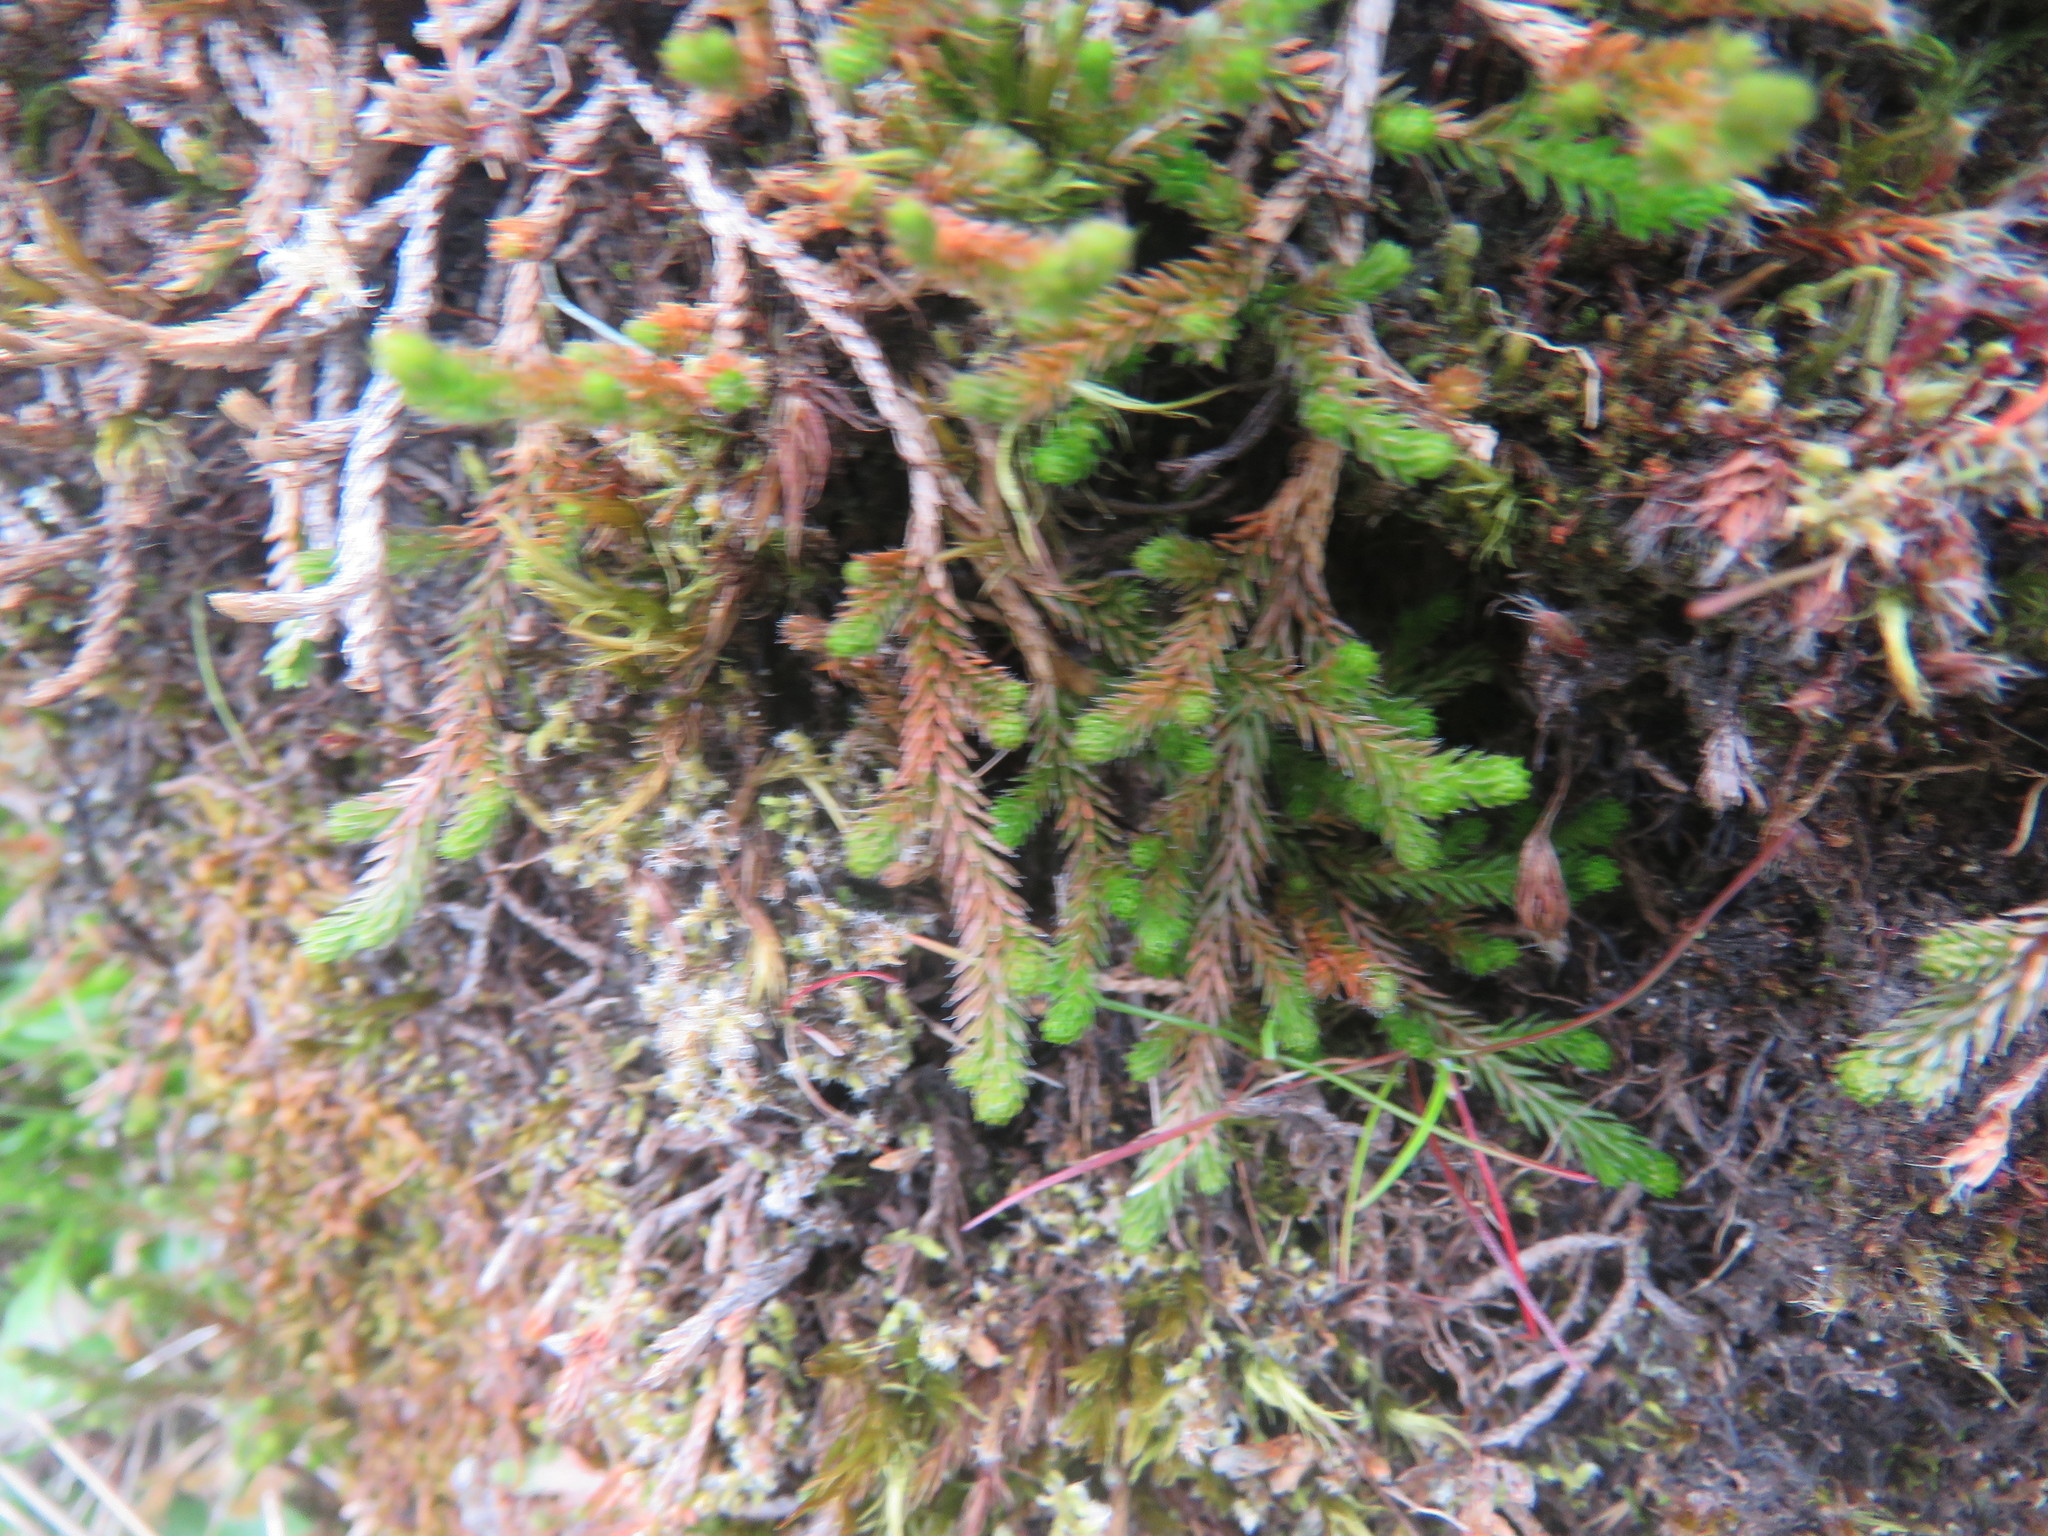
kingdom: Plantae
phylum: Tracheophyta
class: Lycopodiopsida
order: Selaginellales
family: Selaginellaceae
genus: Selaginella
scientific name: Selaginella wallacei
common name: Wallace's selaginella
